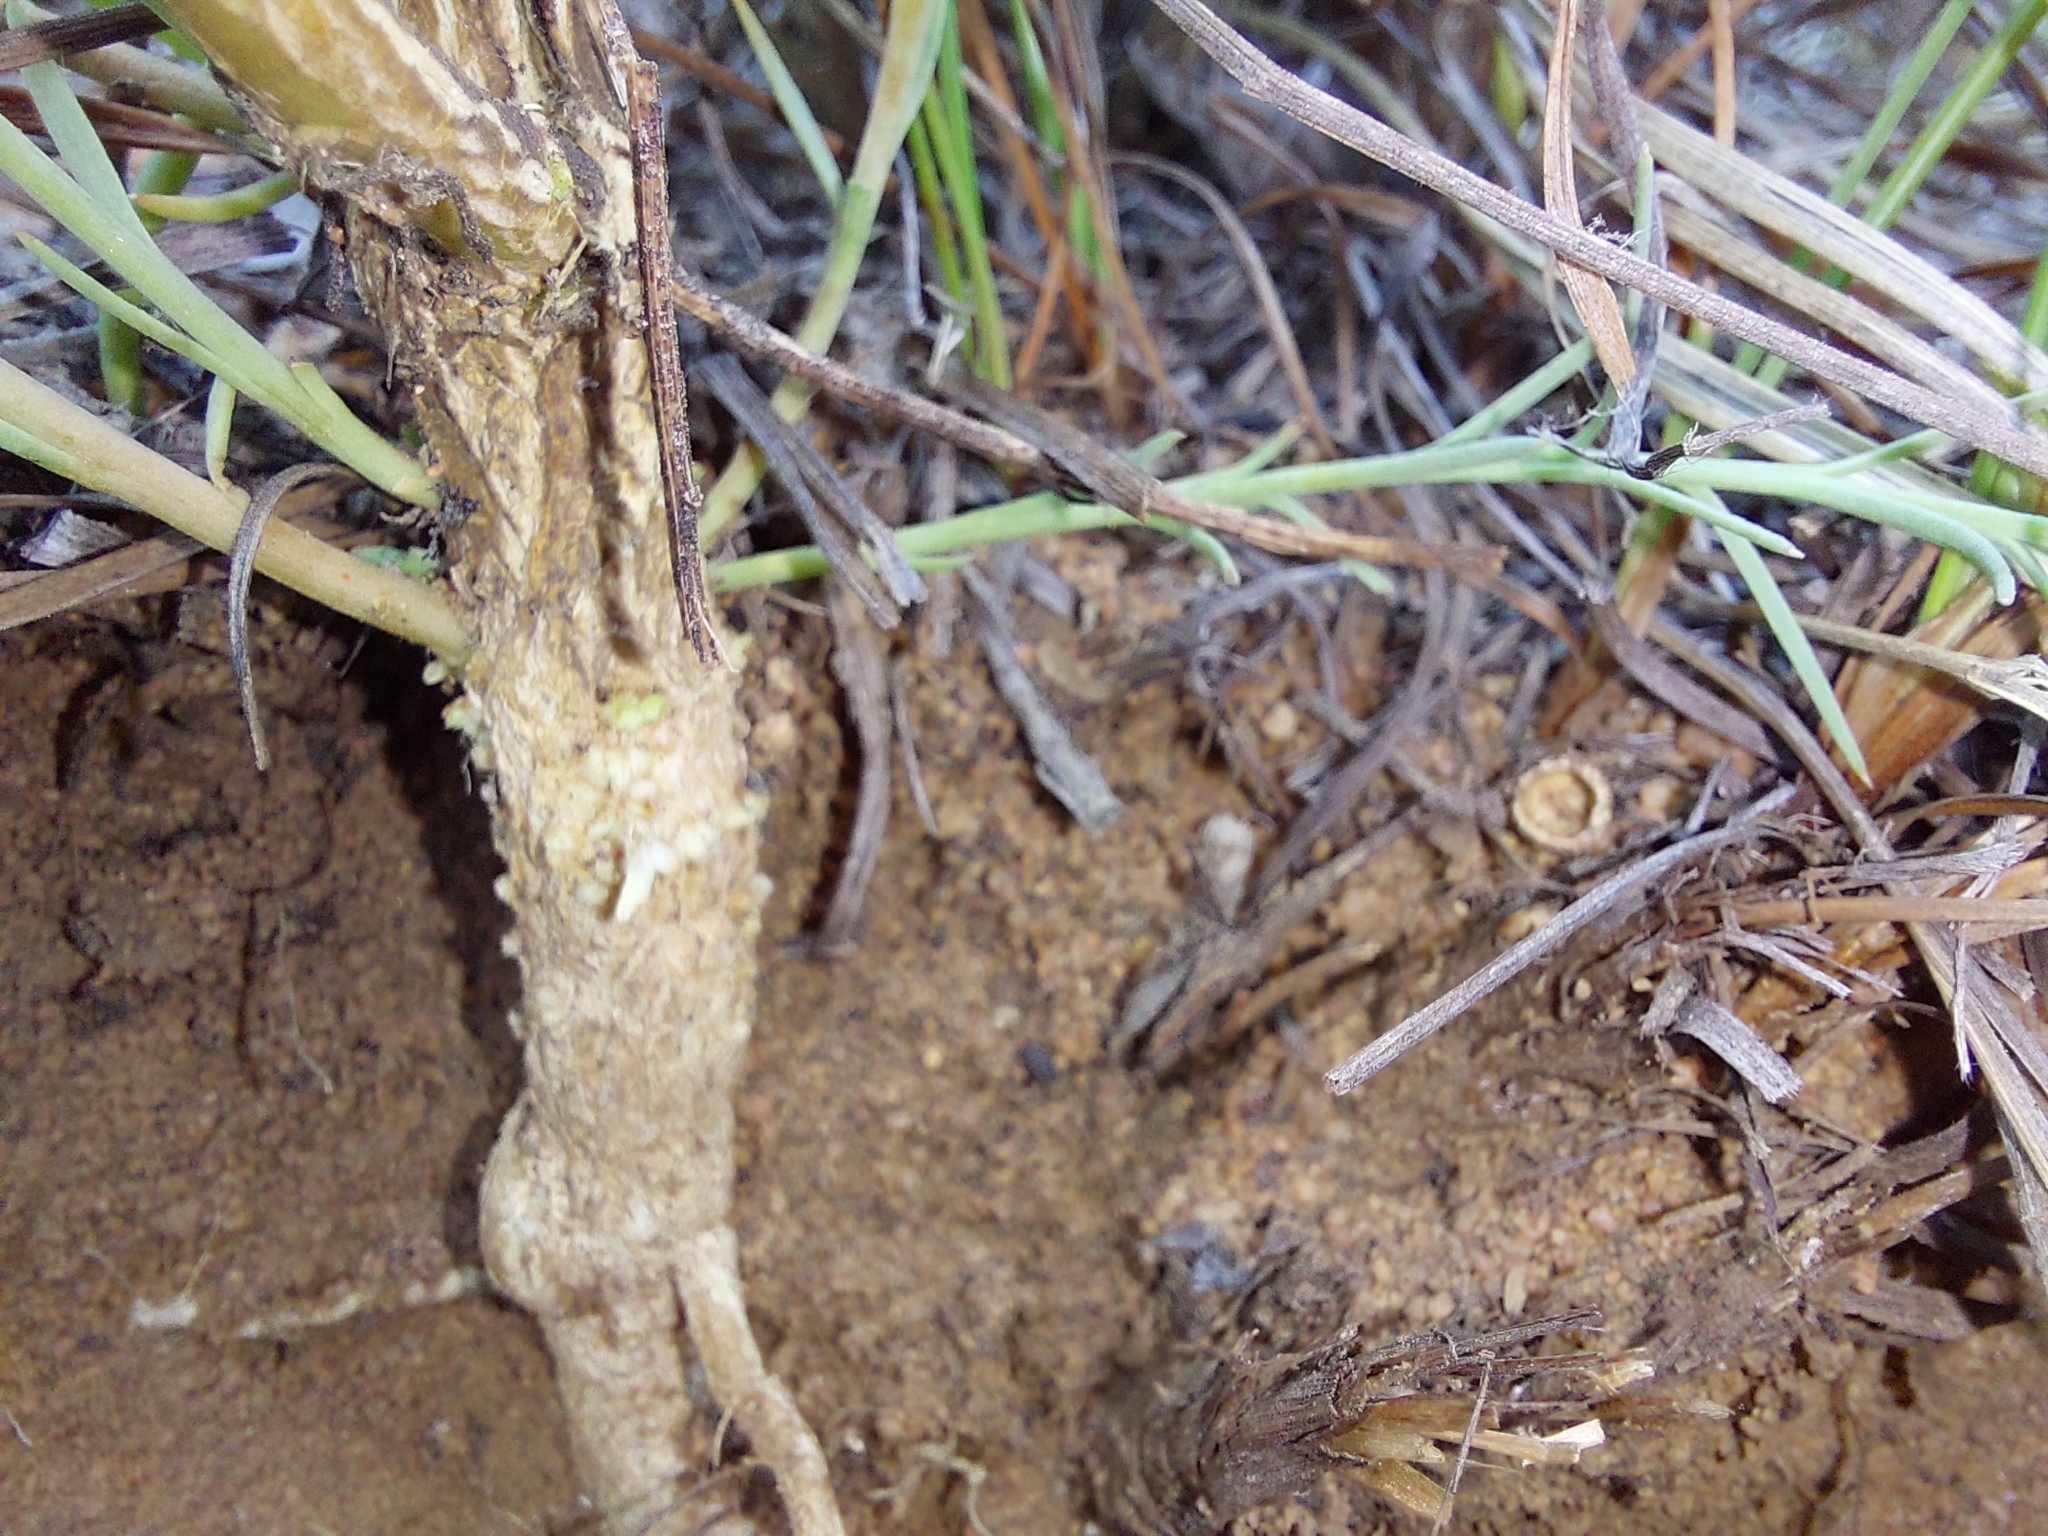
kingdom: Plantae
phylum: Tracheophyta
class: Magnoliopsida
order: Santalales
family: Thesiaceae
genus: Thesium
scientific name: Thesium celatum
